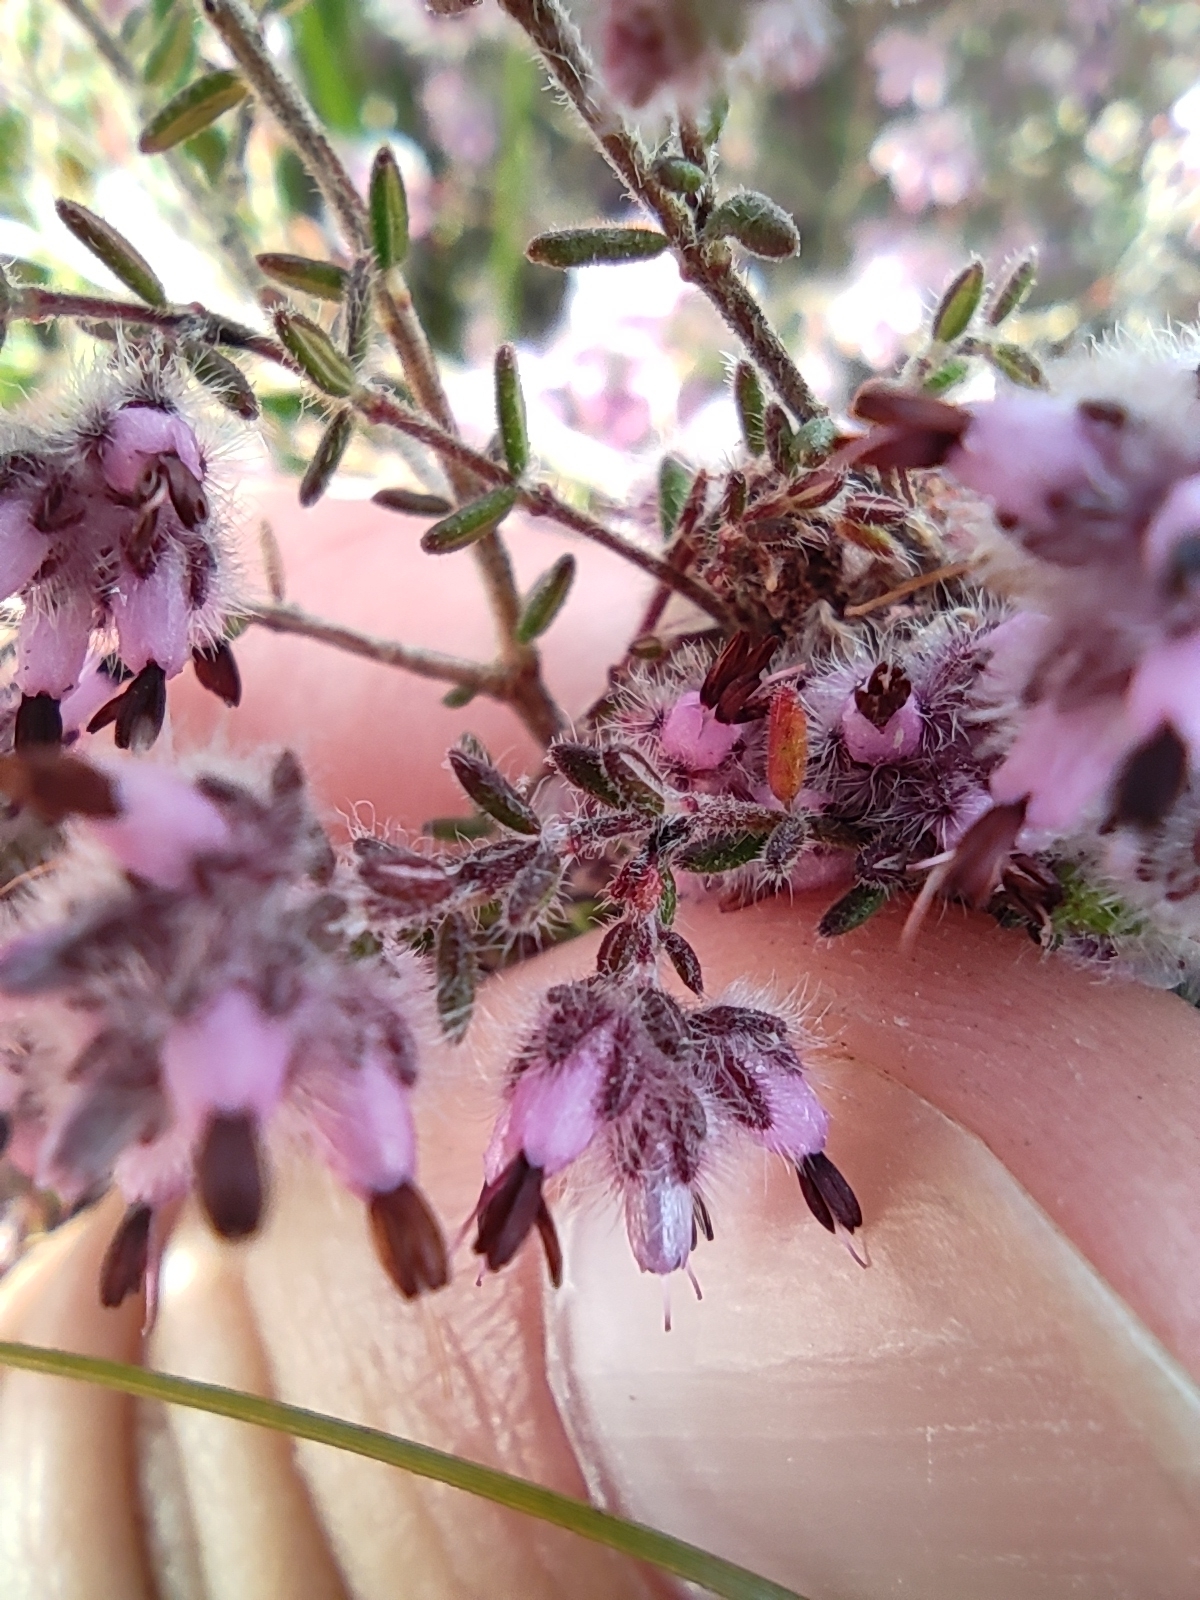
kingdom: Plantae
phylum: Tracheophyta
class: Magnoliopsida
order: Ericales
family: Ericaceae
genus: Erica
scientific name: Erica eriocephala
